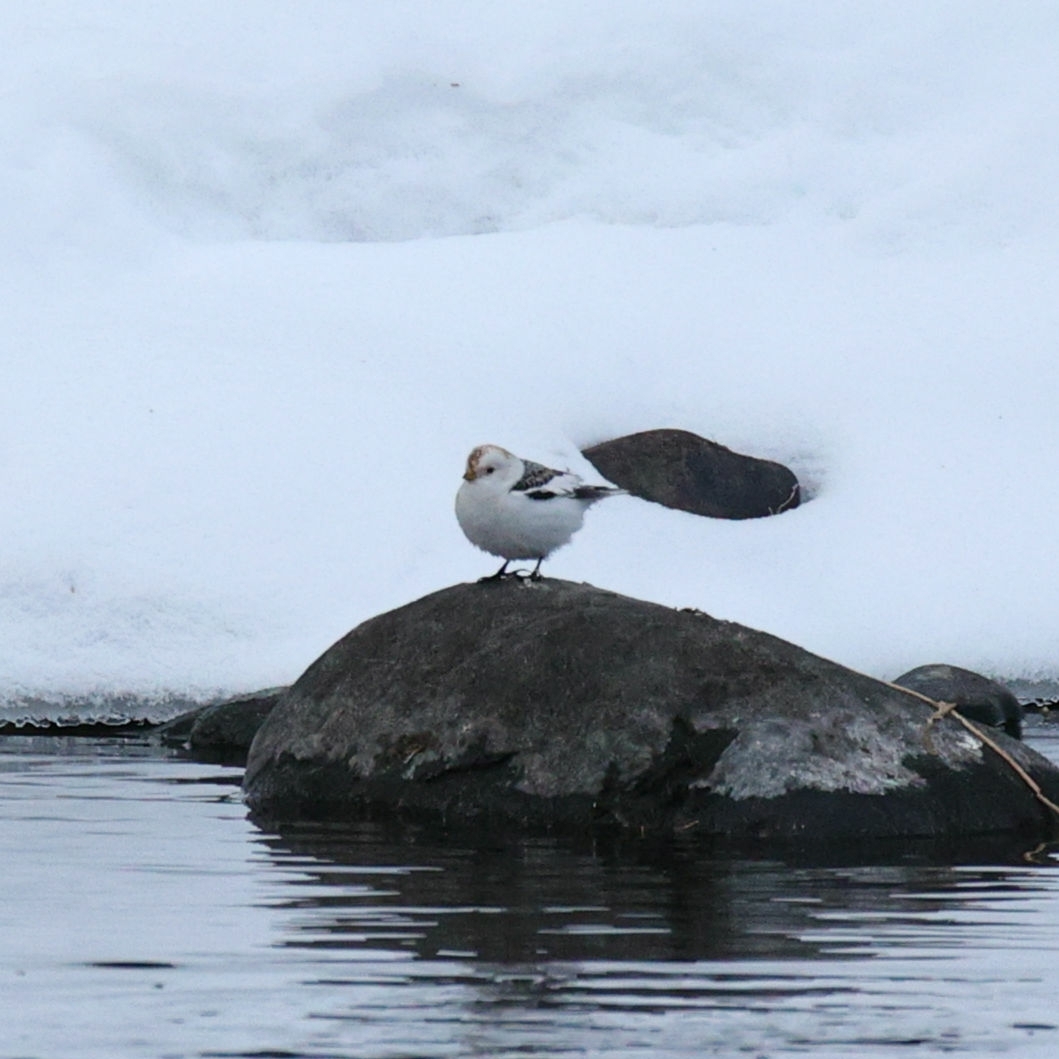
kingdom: Animalia
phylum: Chordata
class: Aves
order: Passeriformes
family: Calcariidae
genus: Plectrophenax
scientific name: Plectrophenax nivalis
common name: Snow bunting
